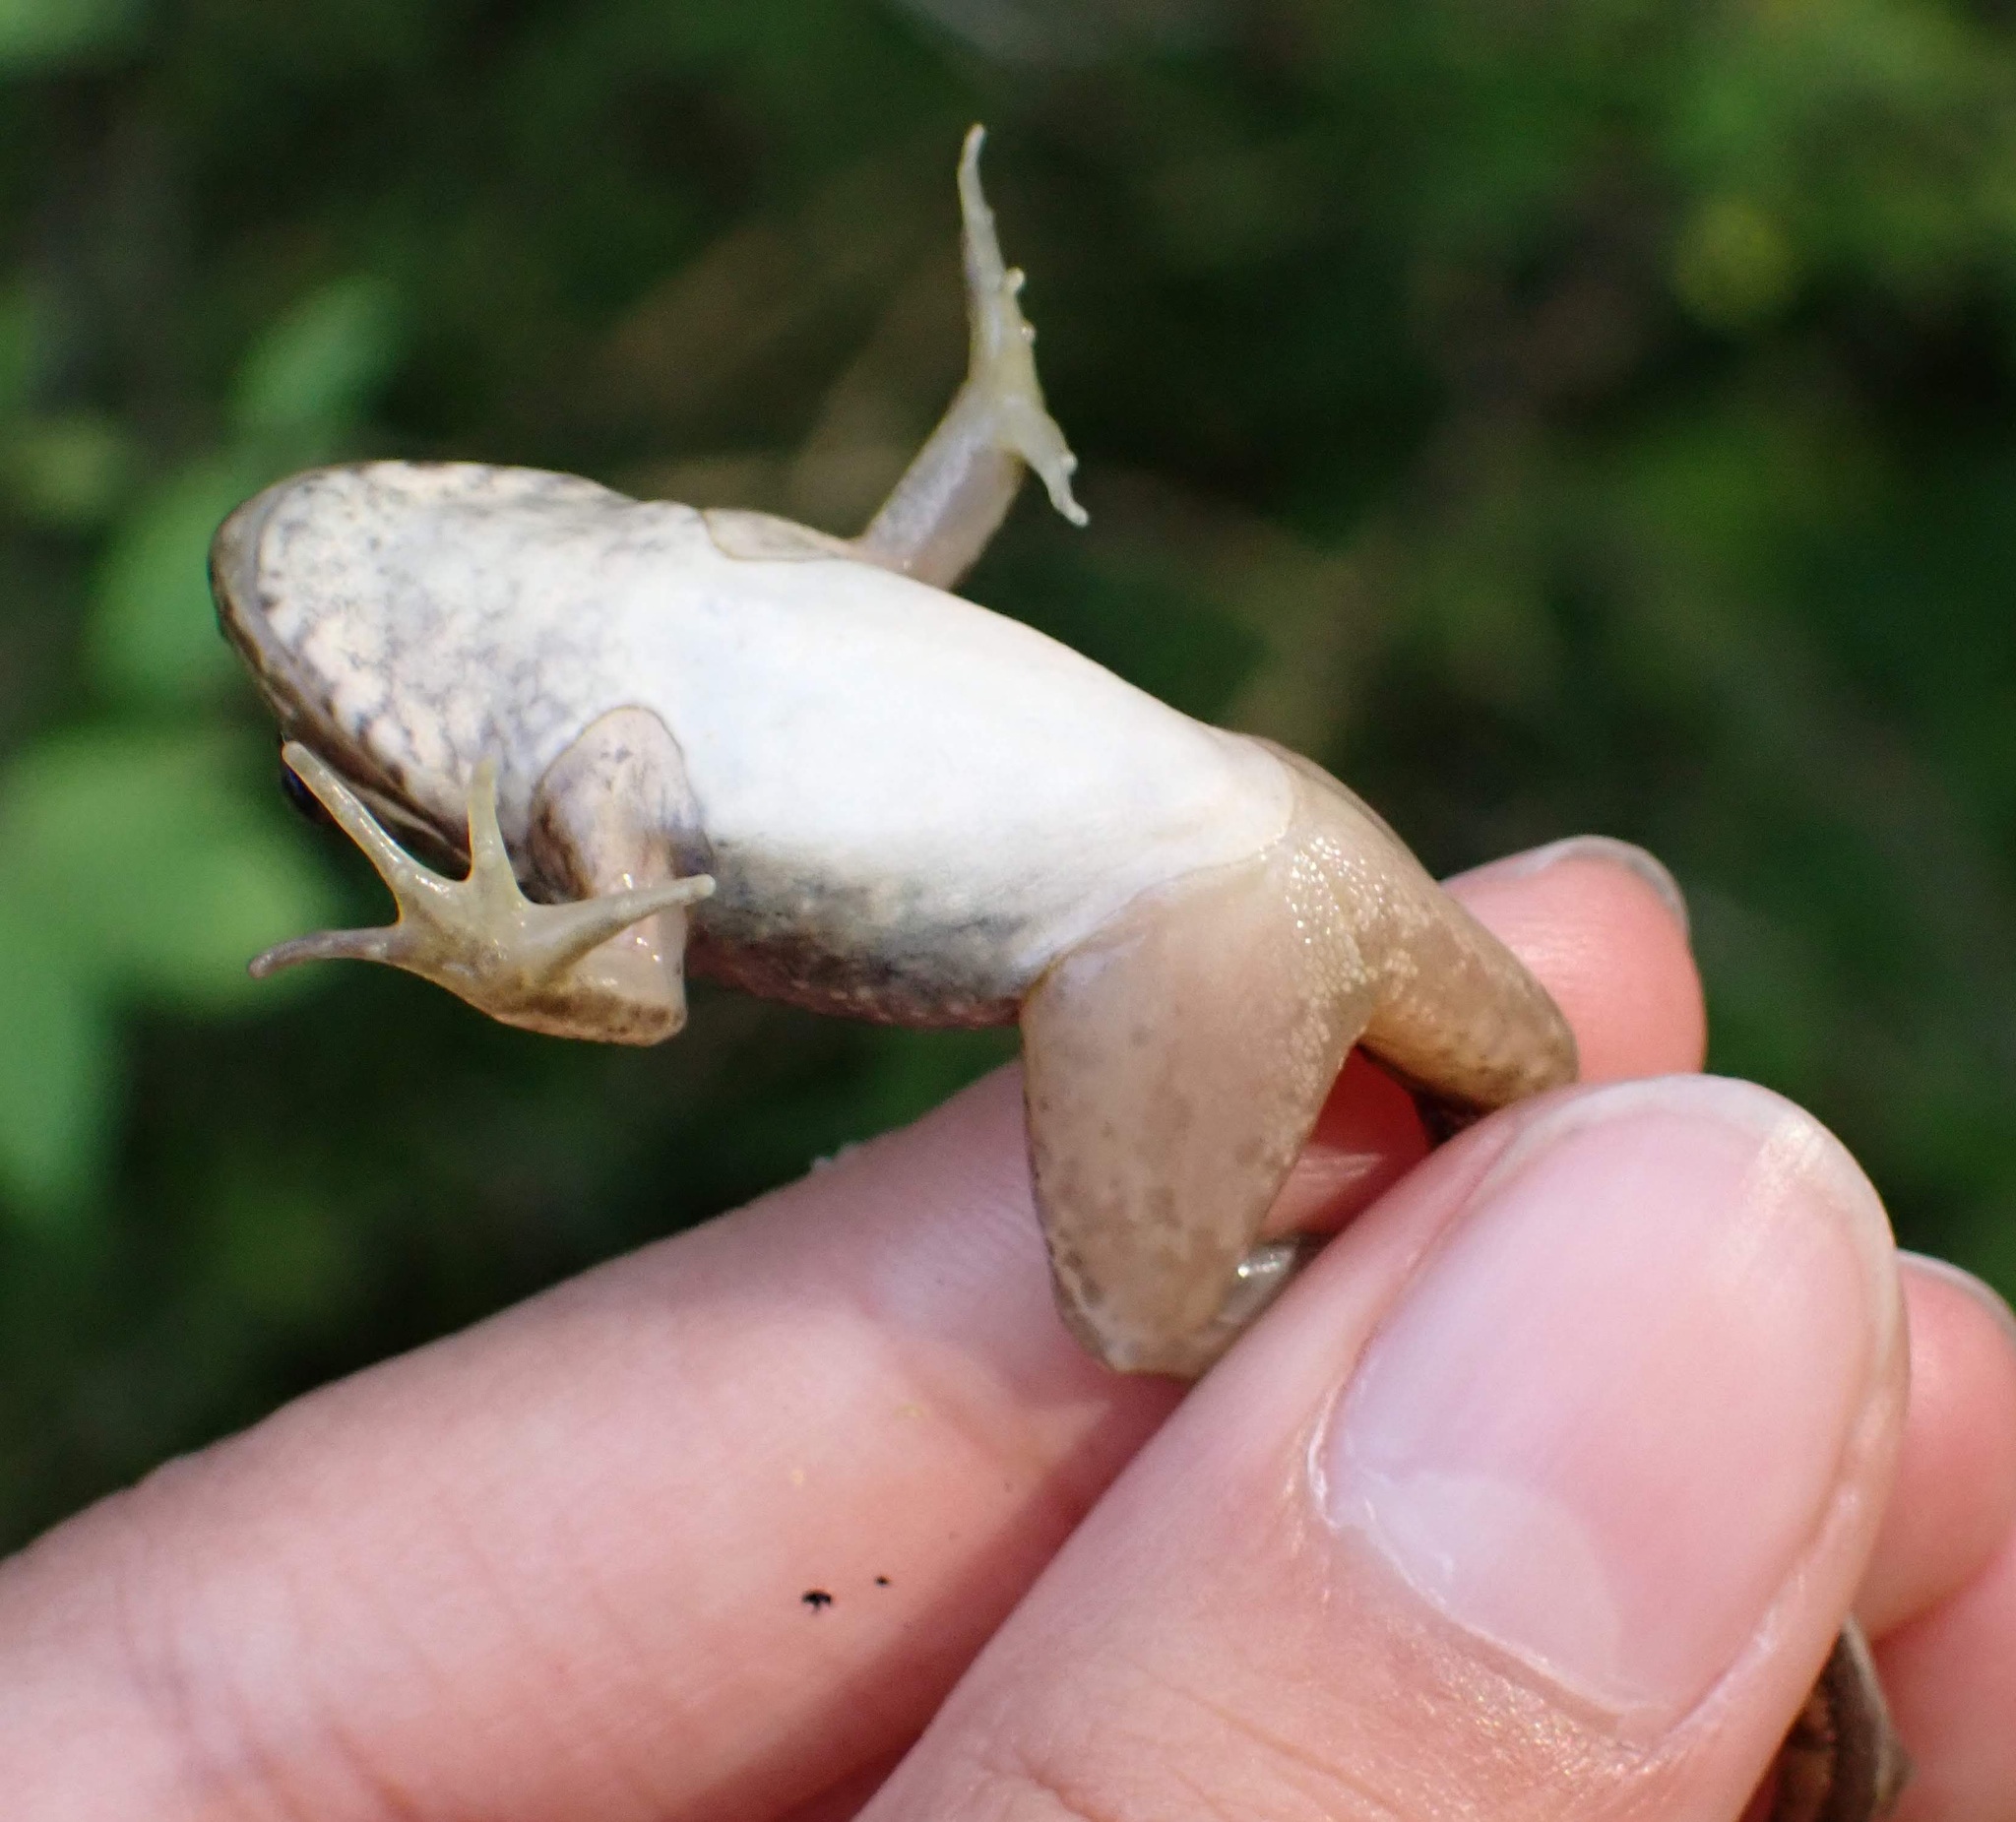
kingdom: Animalia
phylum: Chordata
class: Amphibia
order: Anura
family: Ranidae
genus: Lithobates
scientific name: Lithobates clamitans
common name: Green frog
